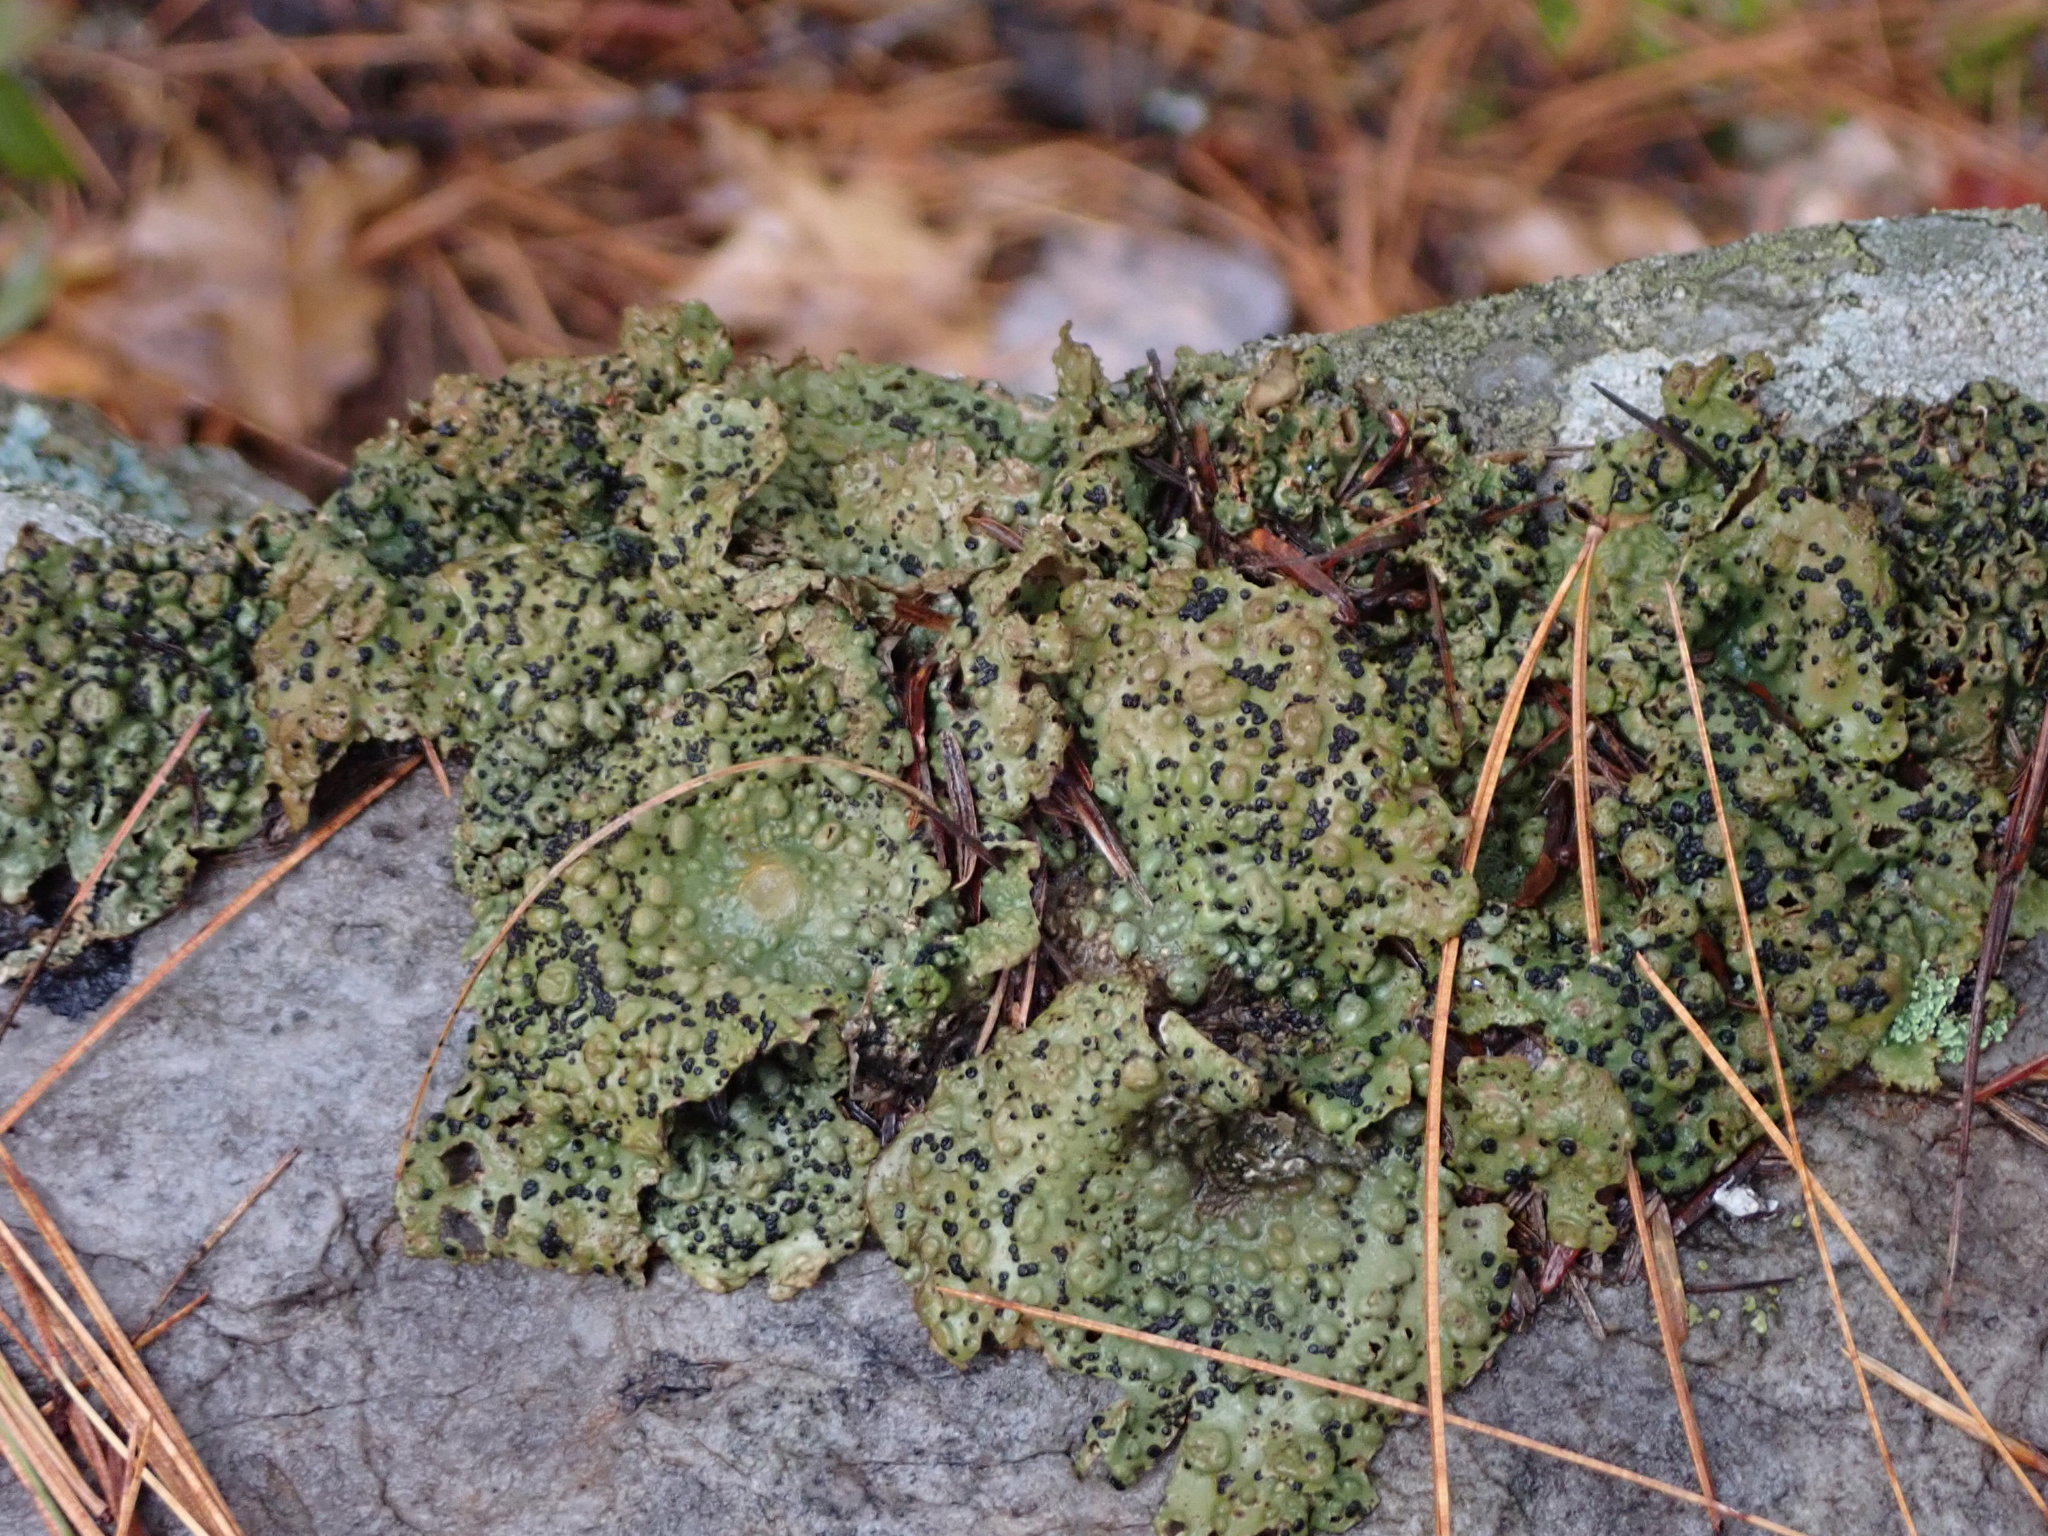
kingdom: Fungi
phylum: Ascomycota
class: Lecanoromycetes
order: Umbilicariales
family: Umbilicariaceae
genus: Lasallia
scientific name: Lasallia papulosa
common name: Common toadskin lichen
